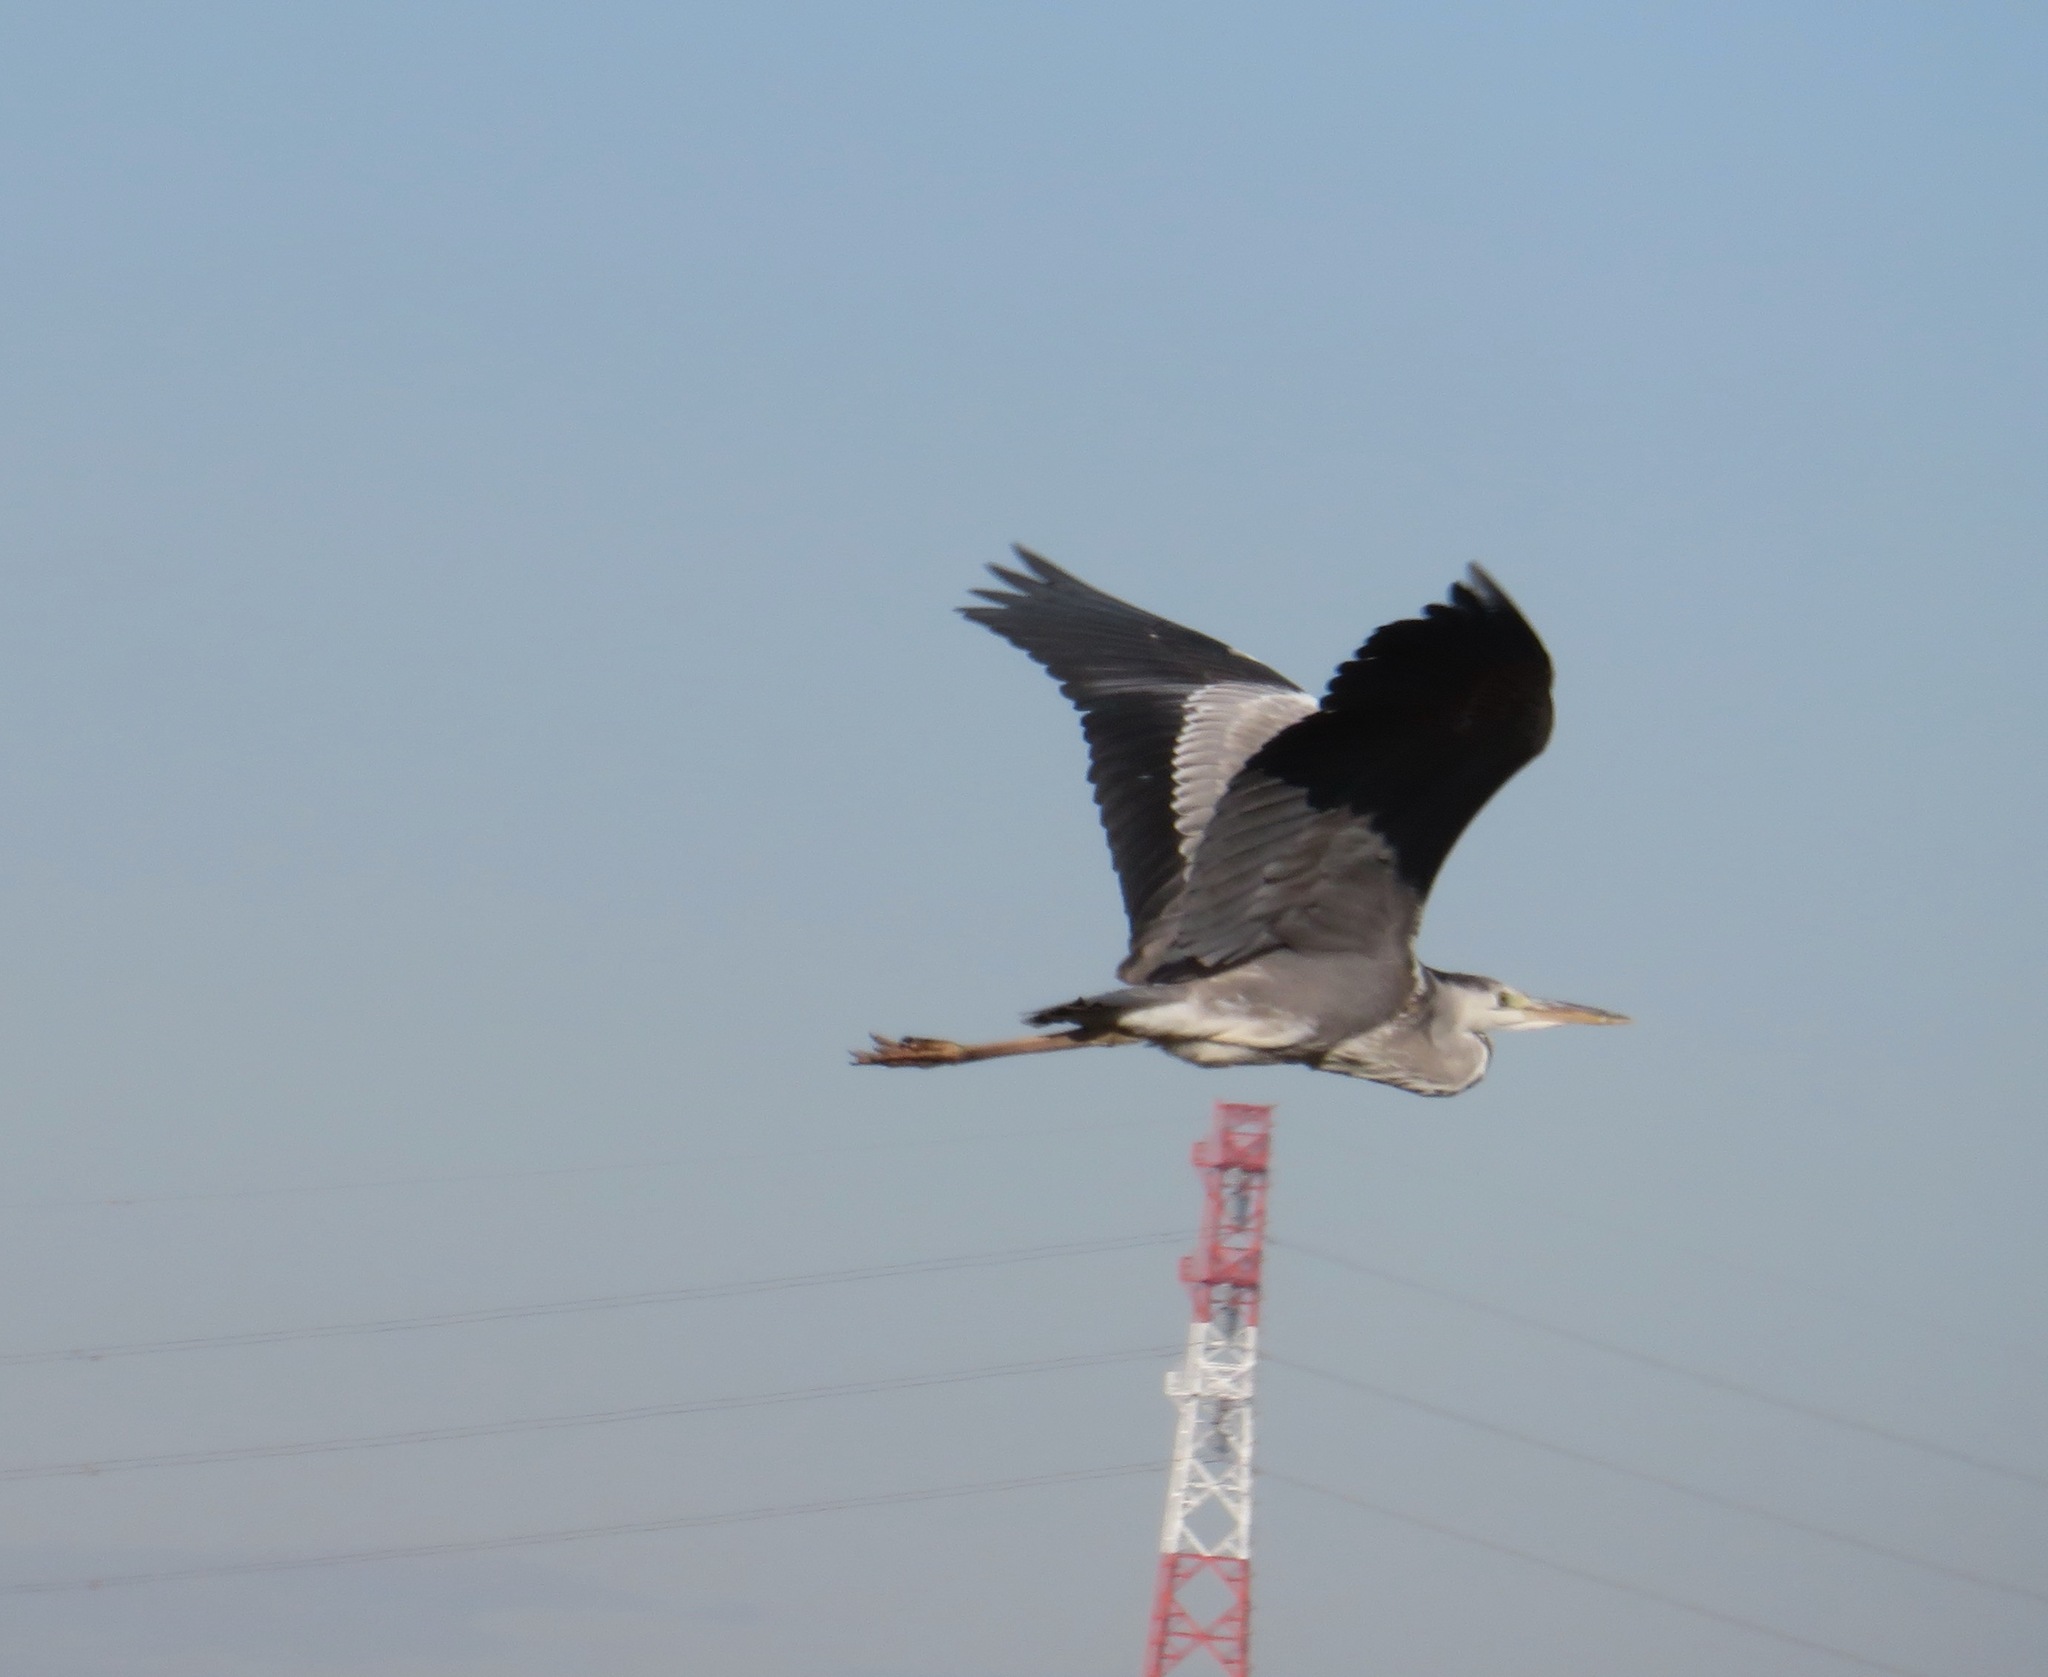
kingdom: Animalia
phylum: Chordata
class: Aves
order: Pelecaniformes
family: Ardeidae
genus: Ardea
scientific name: Ardea cinerea
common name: Grey heron
